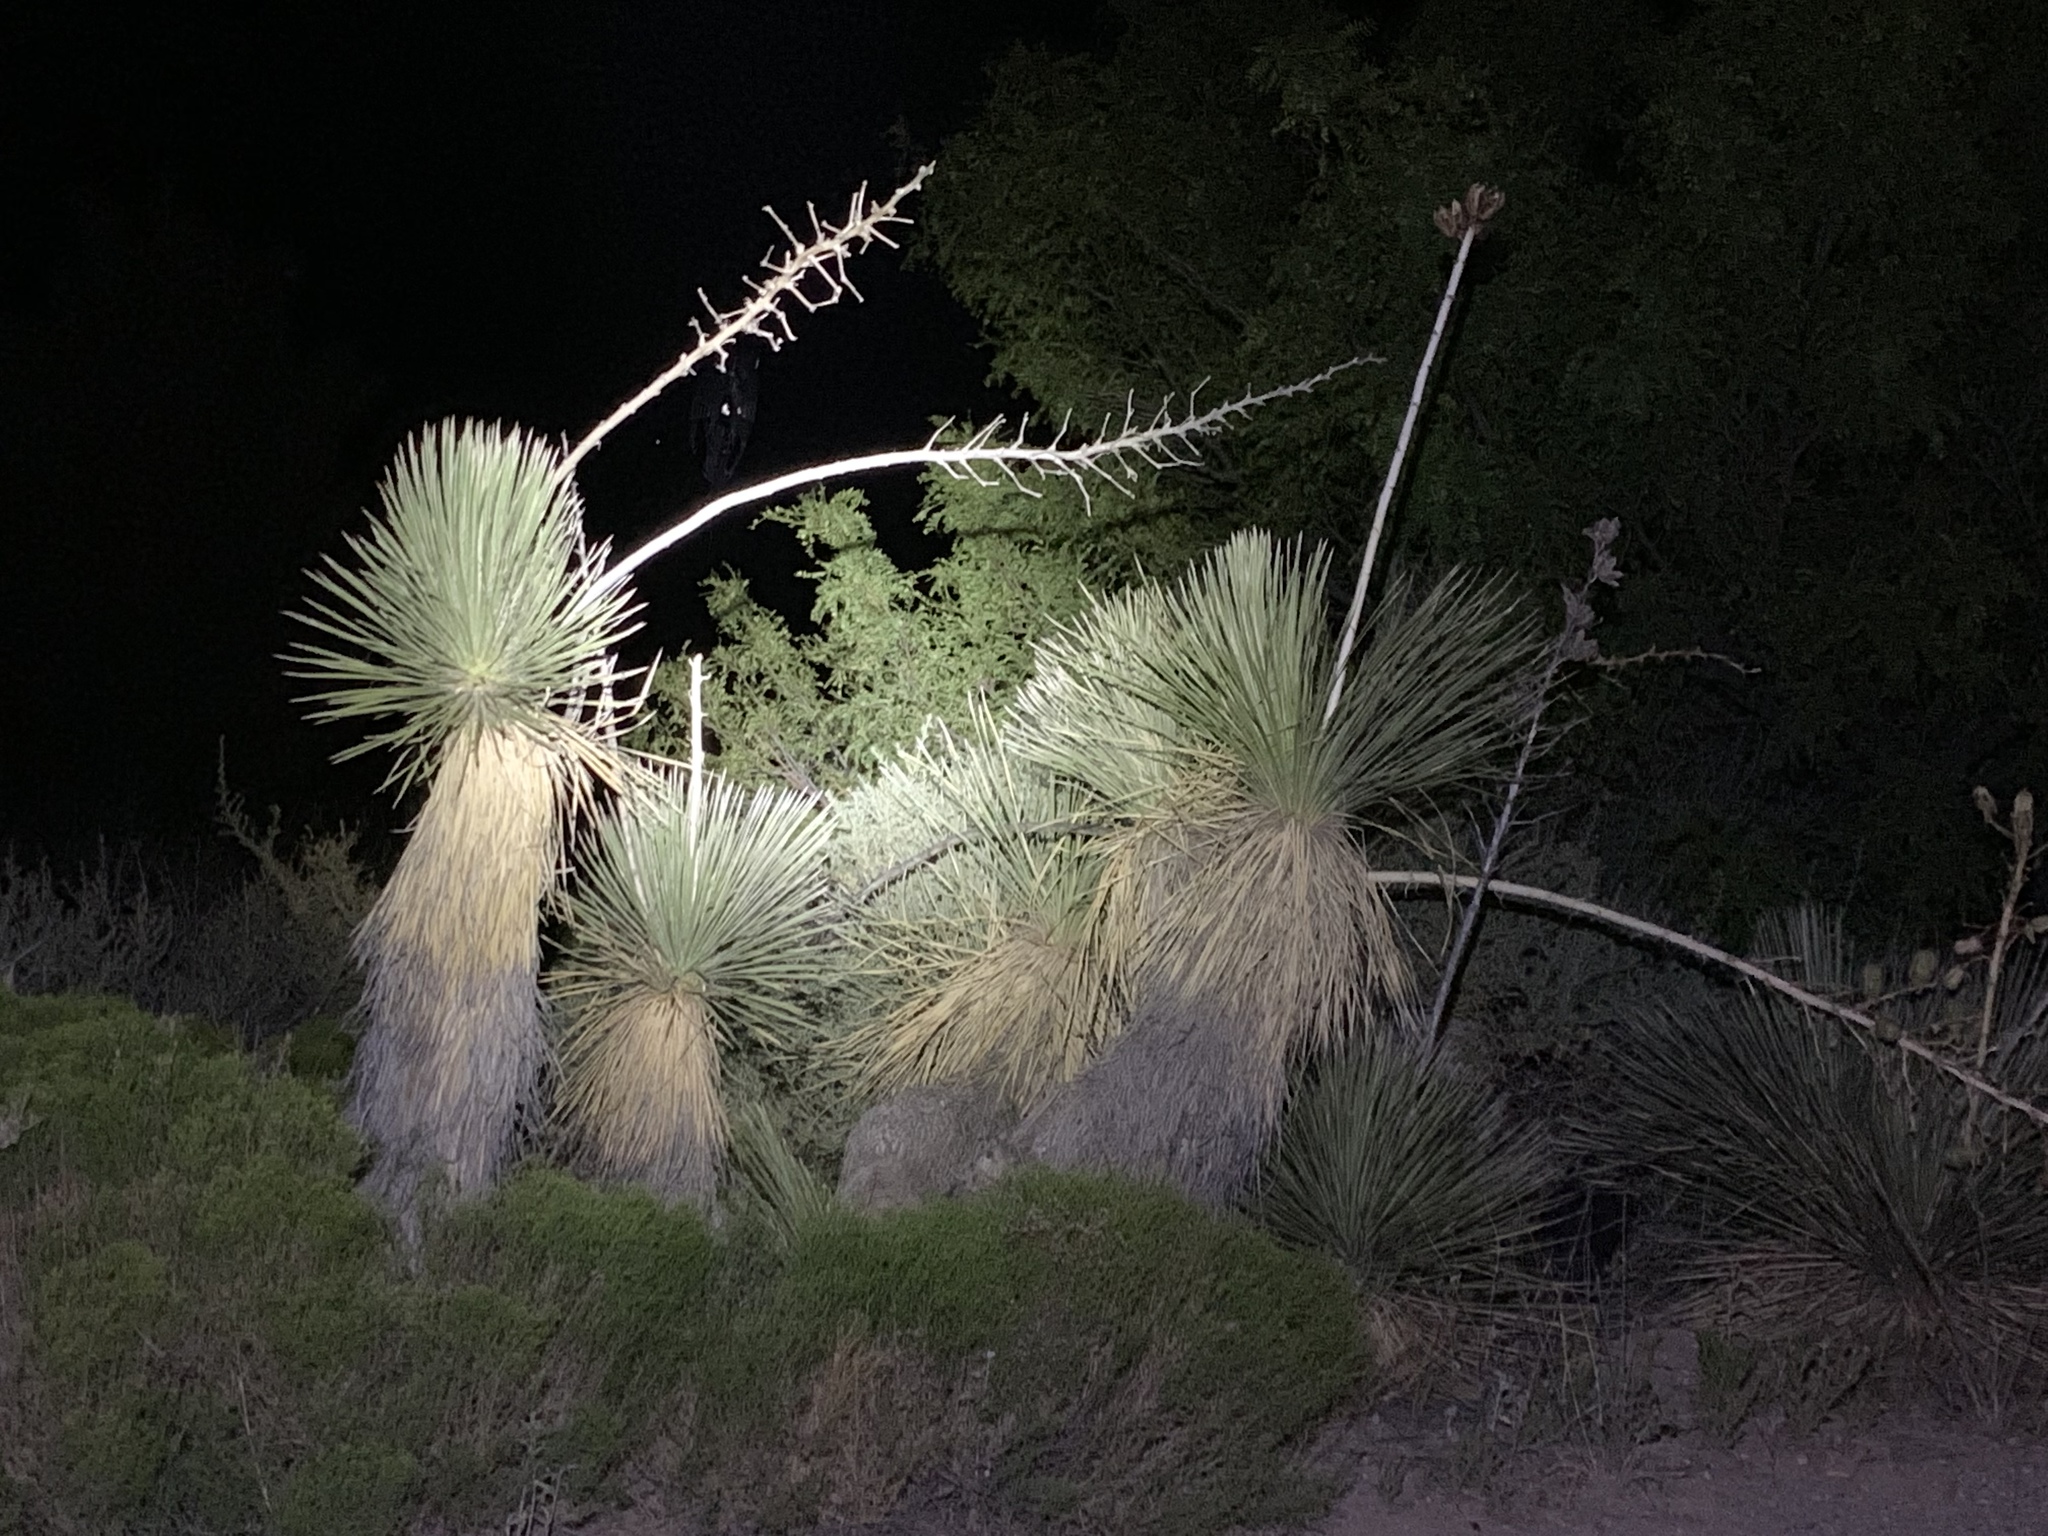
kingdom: Plantae
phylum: Tracheophyta
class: Liliopsida
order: Asparagales
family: Asparagaceae
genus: Yucca
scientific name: Yucca elata
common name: Palmella
